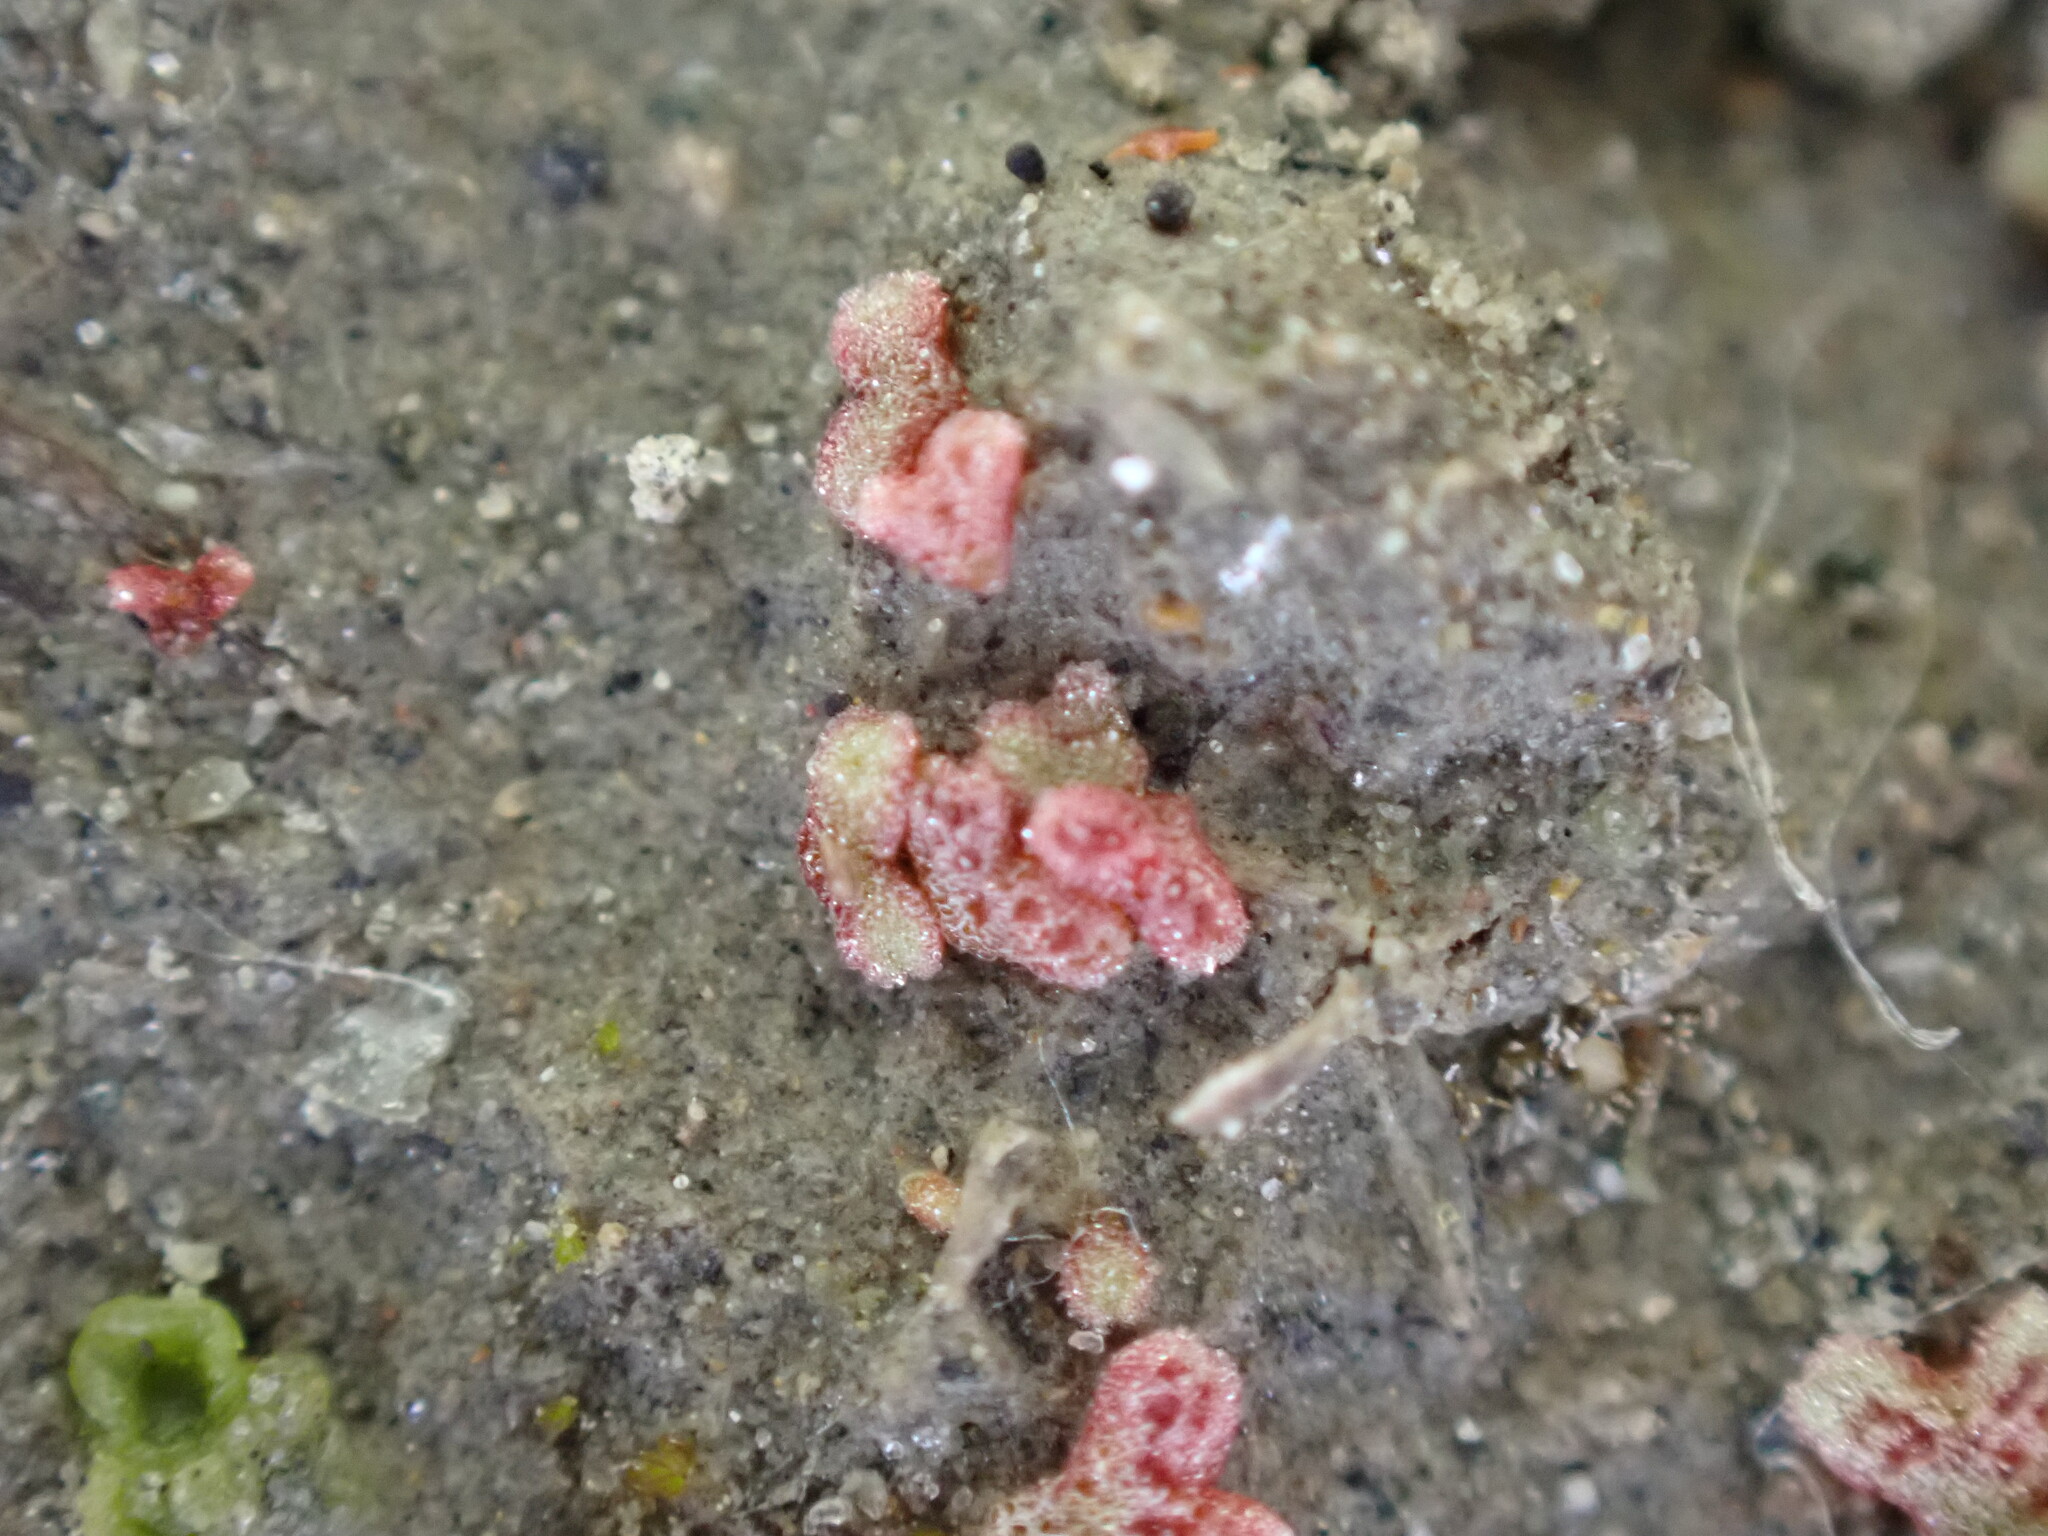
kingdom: Plantae
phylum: Marchantiophyta
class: Marchantiopsida
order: Marchantiales
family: Ricciaceae
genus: Riccia
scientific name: Riccia frostii
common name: Frost s crystalwort
